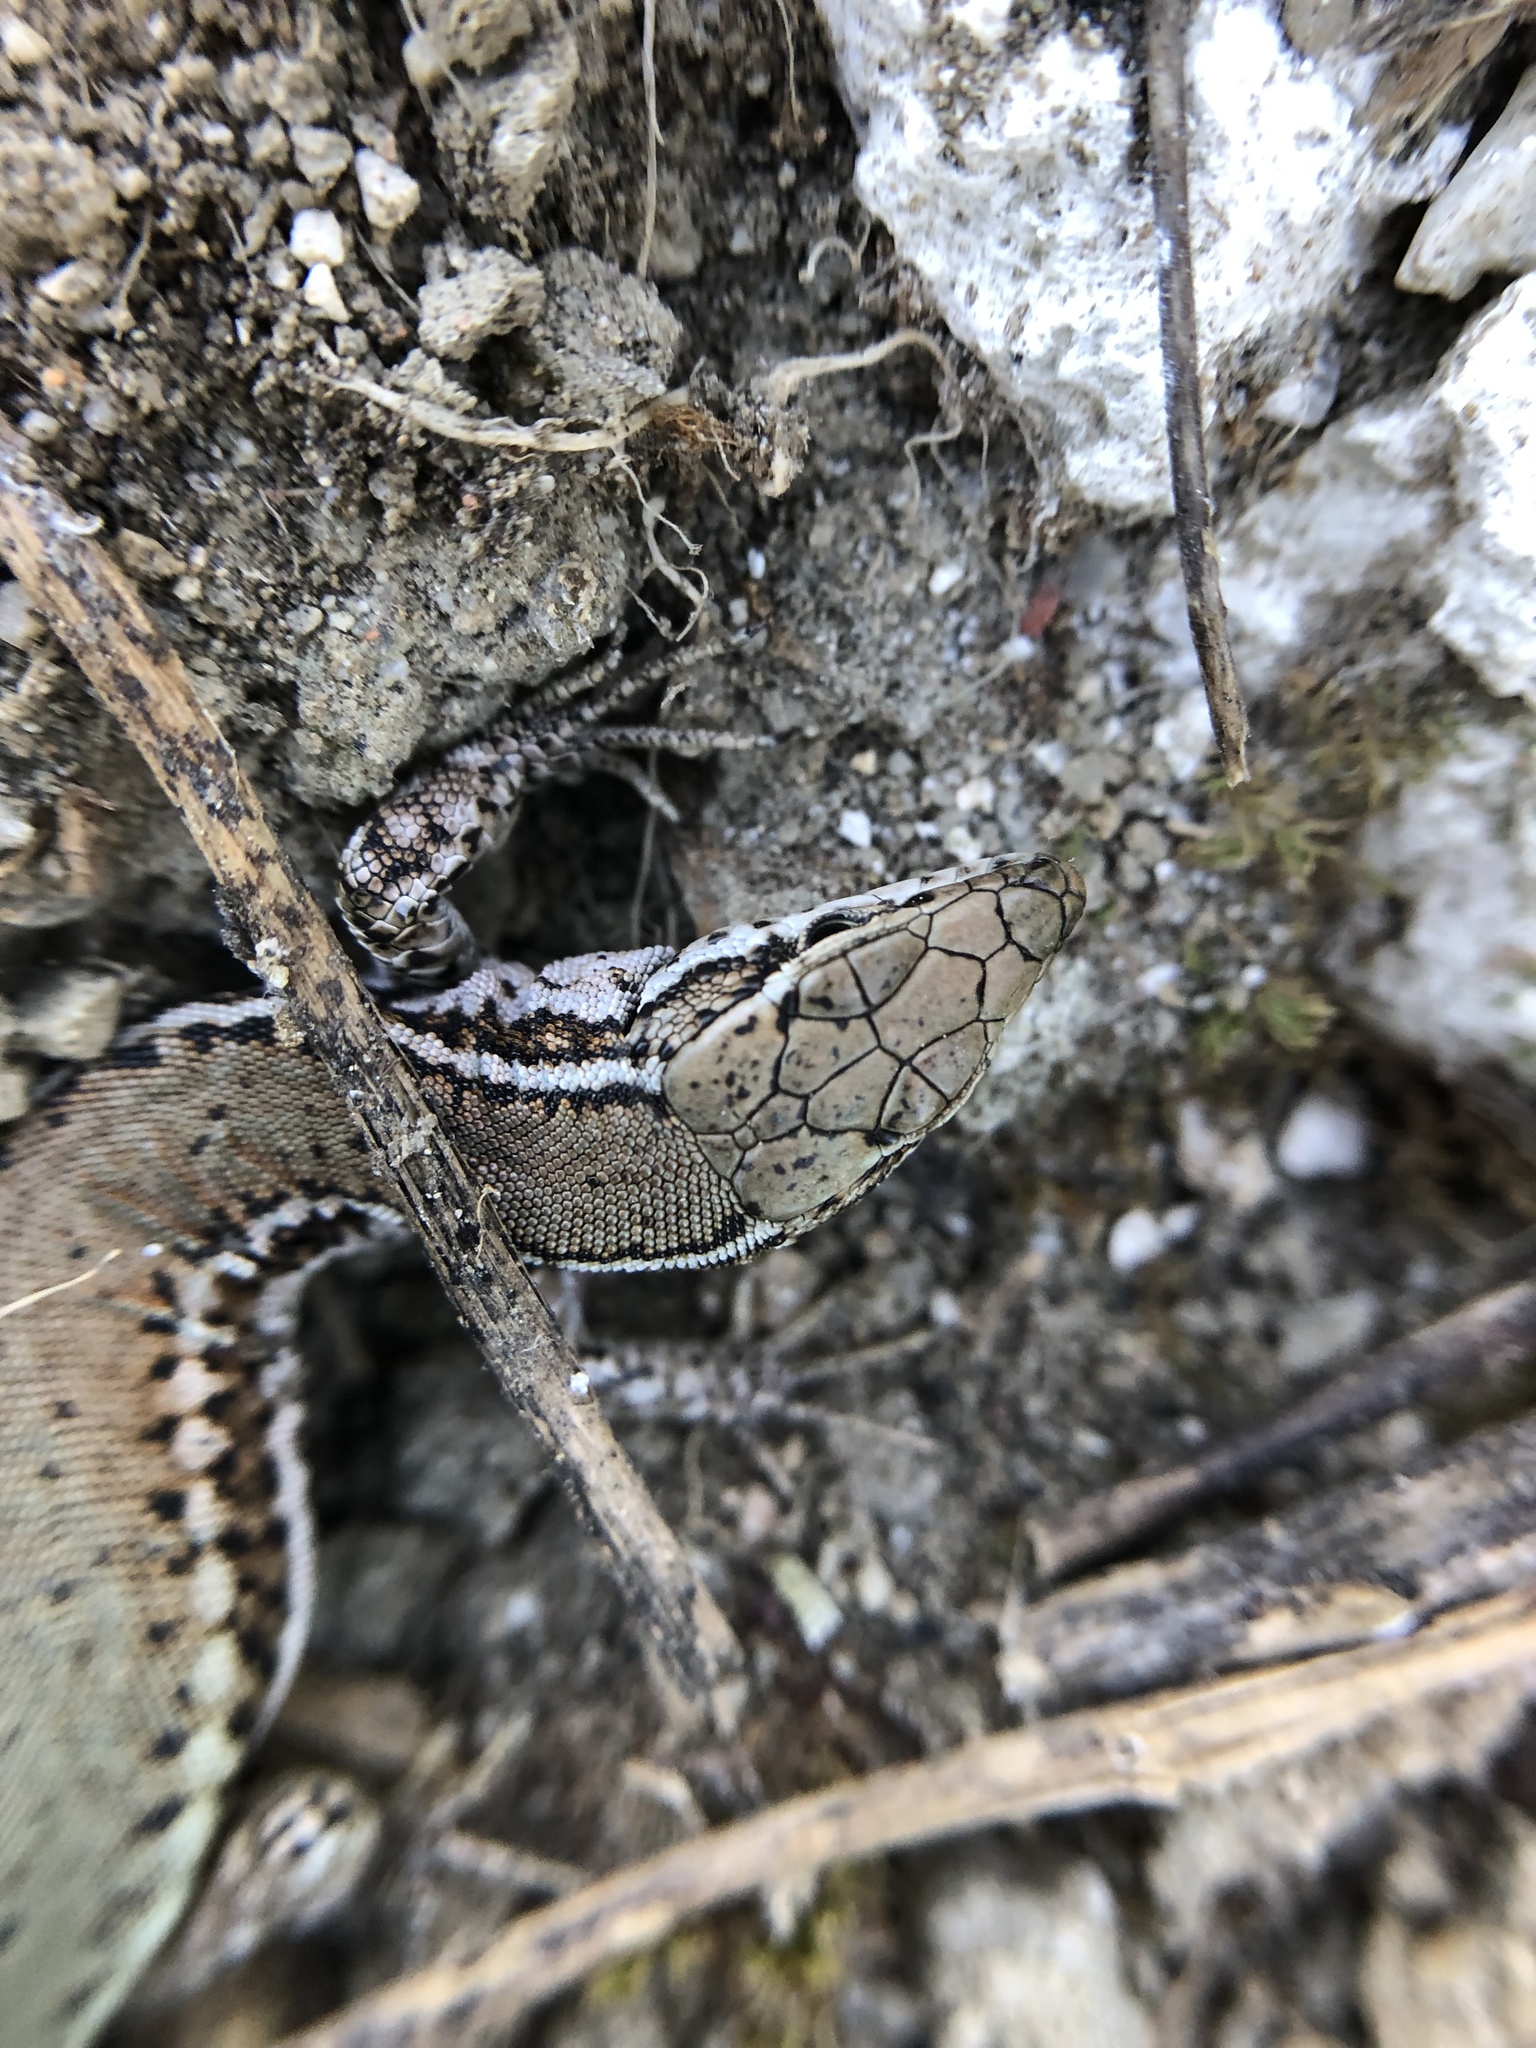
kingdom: Animalia
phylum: Chordata
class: Squamata
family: Lacertidae
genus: Podarcis
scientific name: Podarcis virescens
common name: Geniez’s wall lizard
